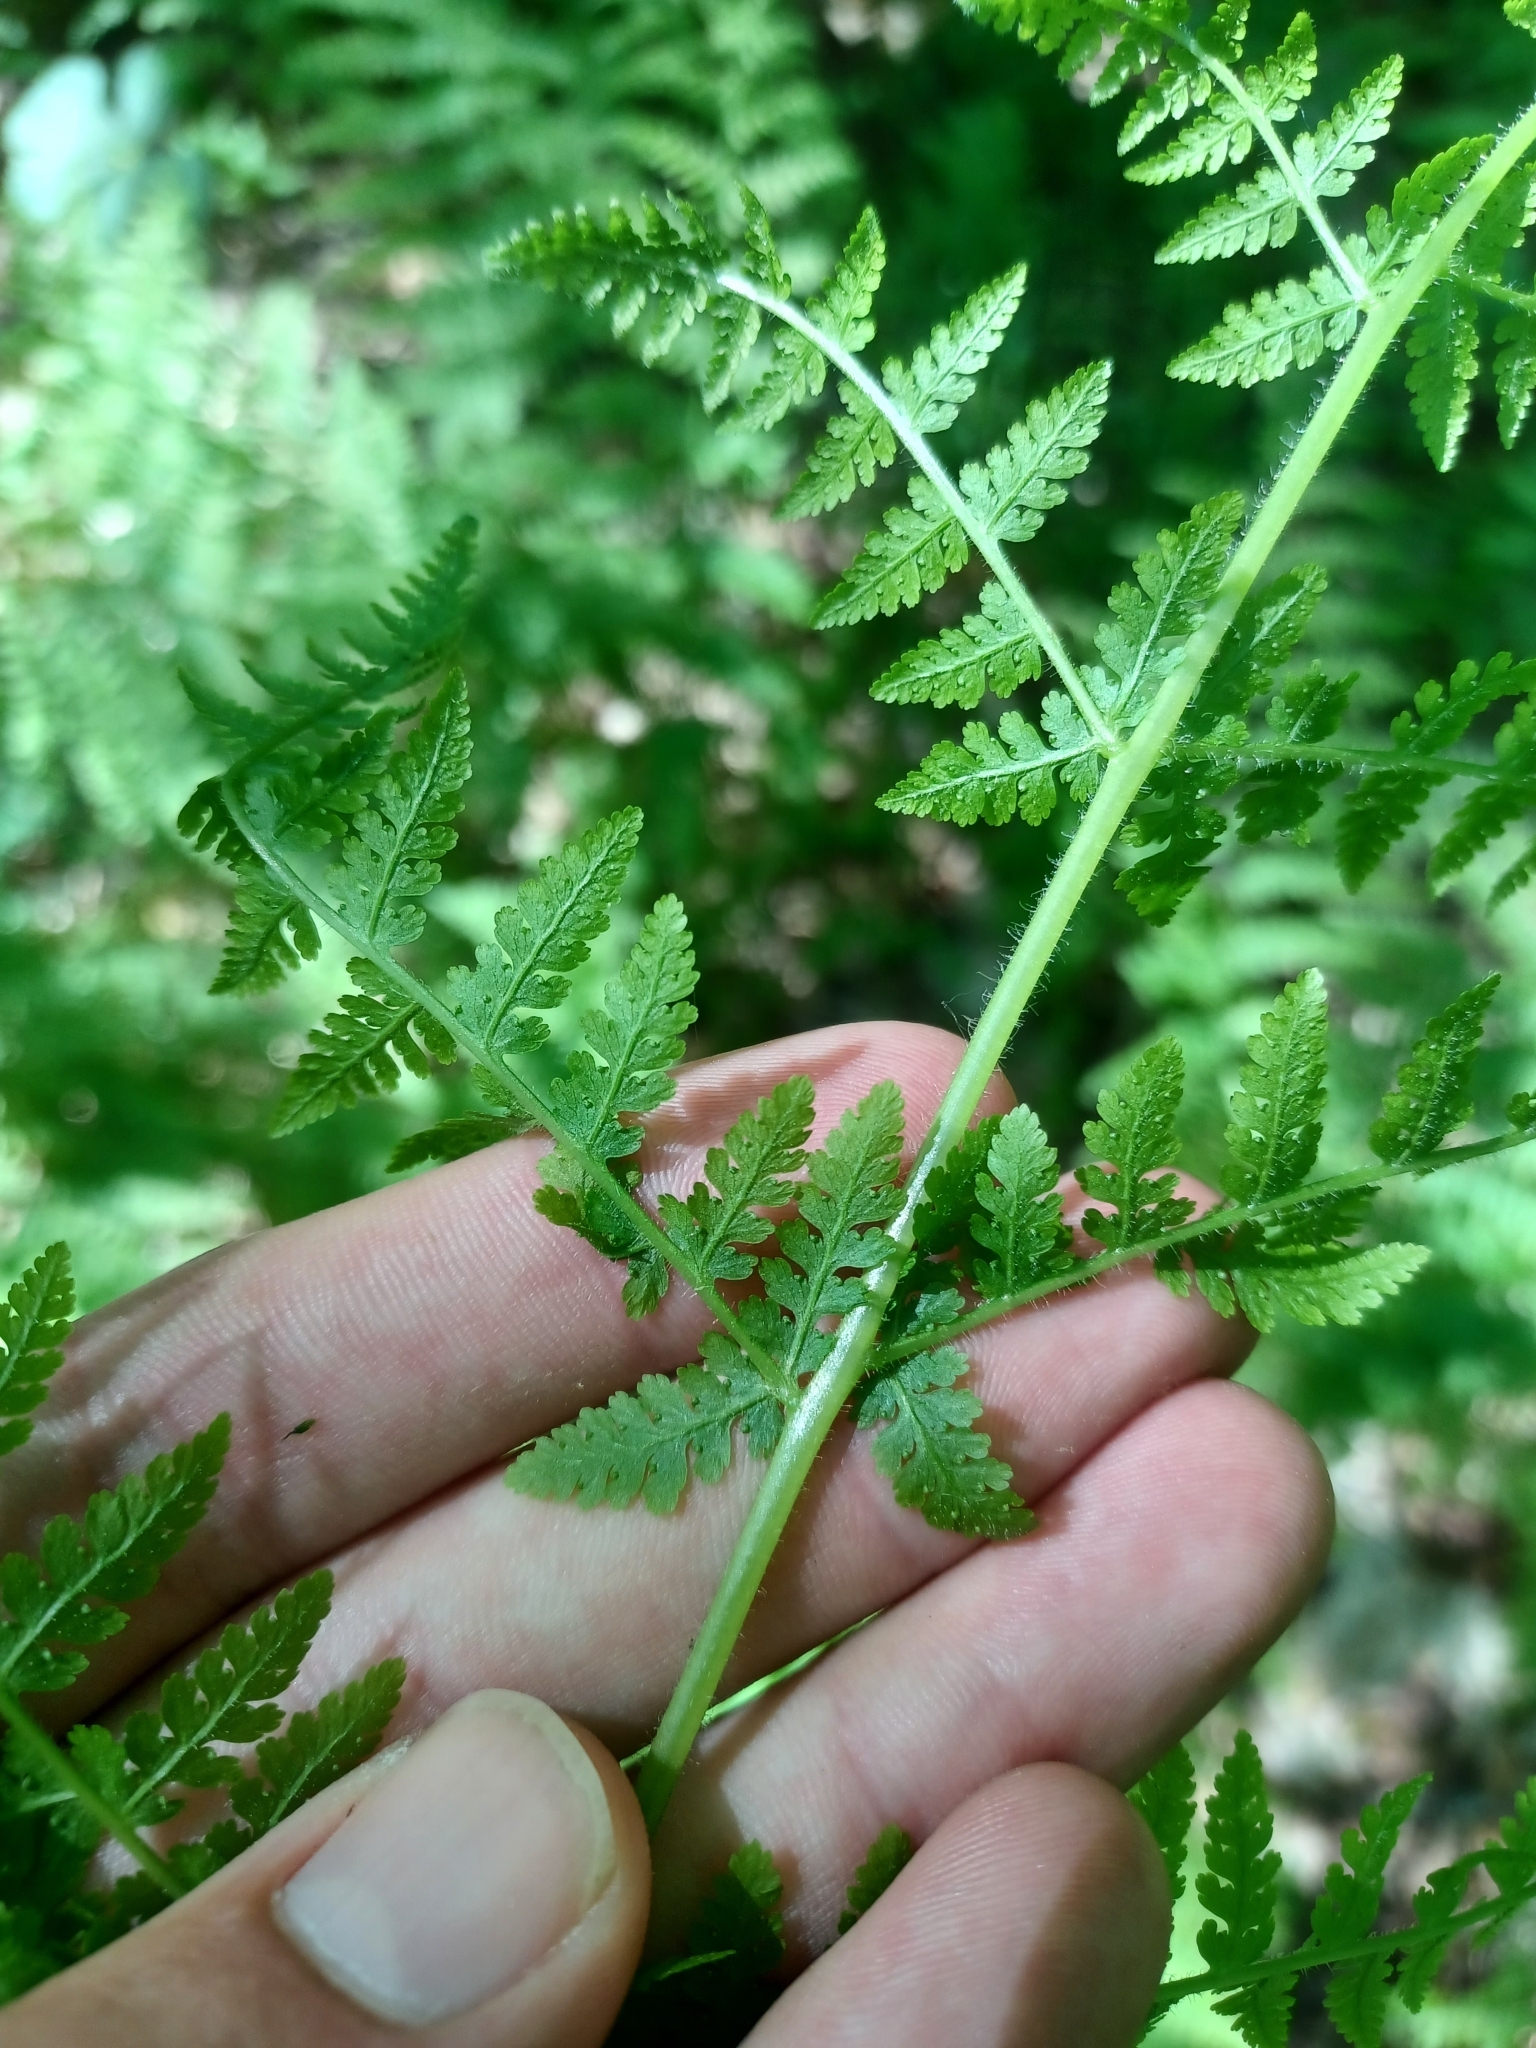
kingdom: Plantae
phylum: Tracheophyta
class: Polypodiopsida
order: Polypodiales
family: Dennstaedtiaceae
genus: Sitobolium
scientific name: Sitobolium punctilobum
